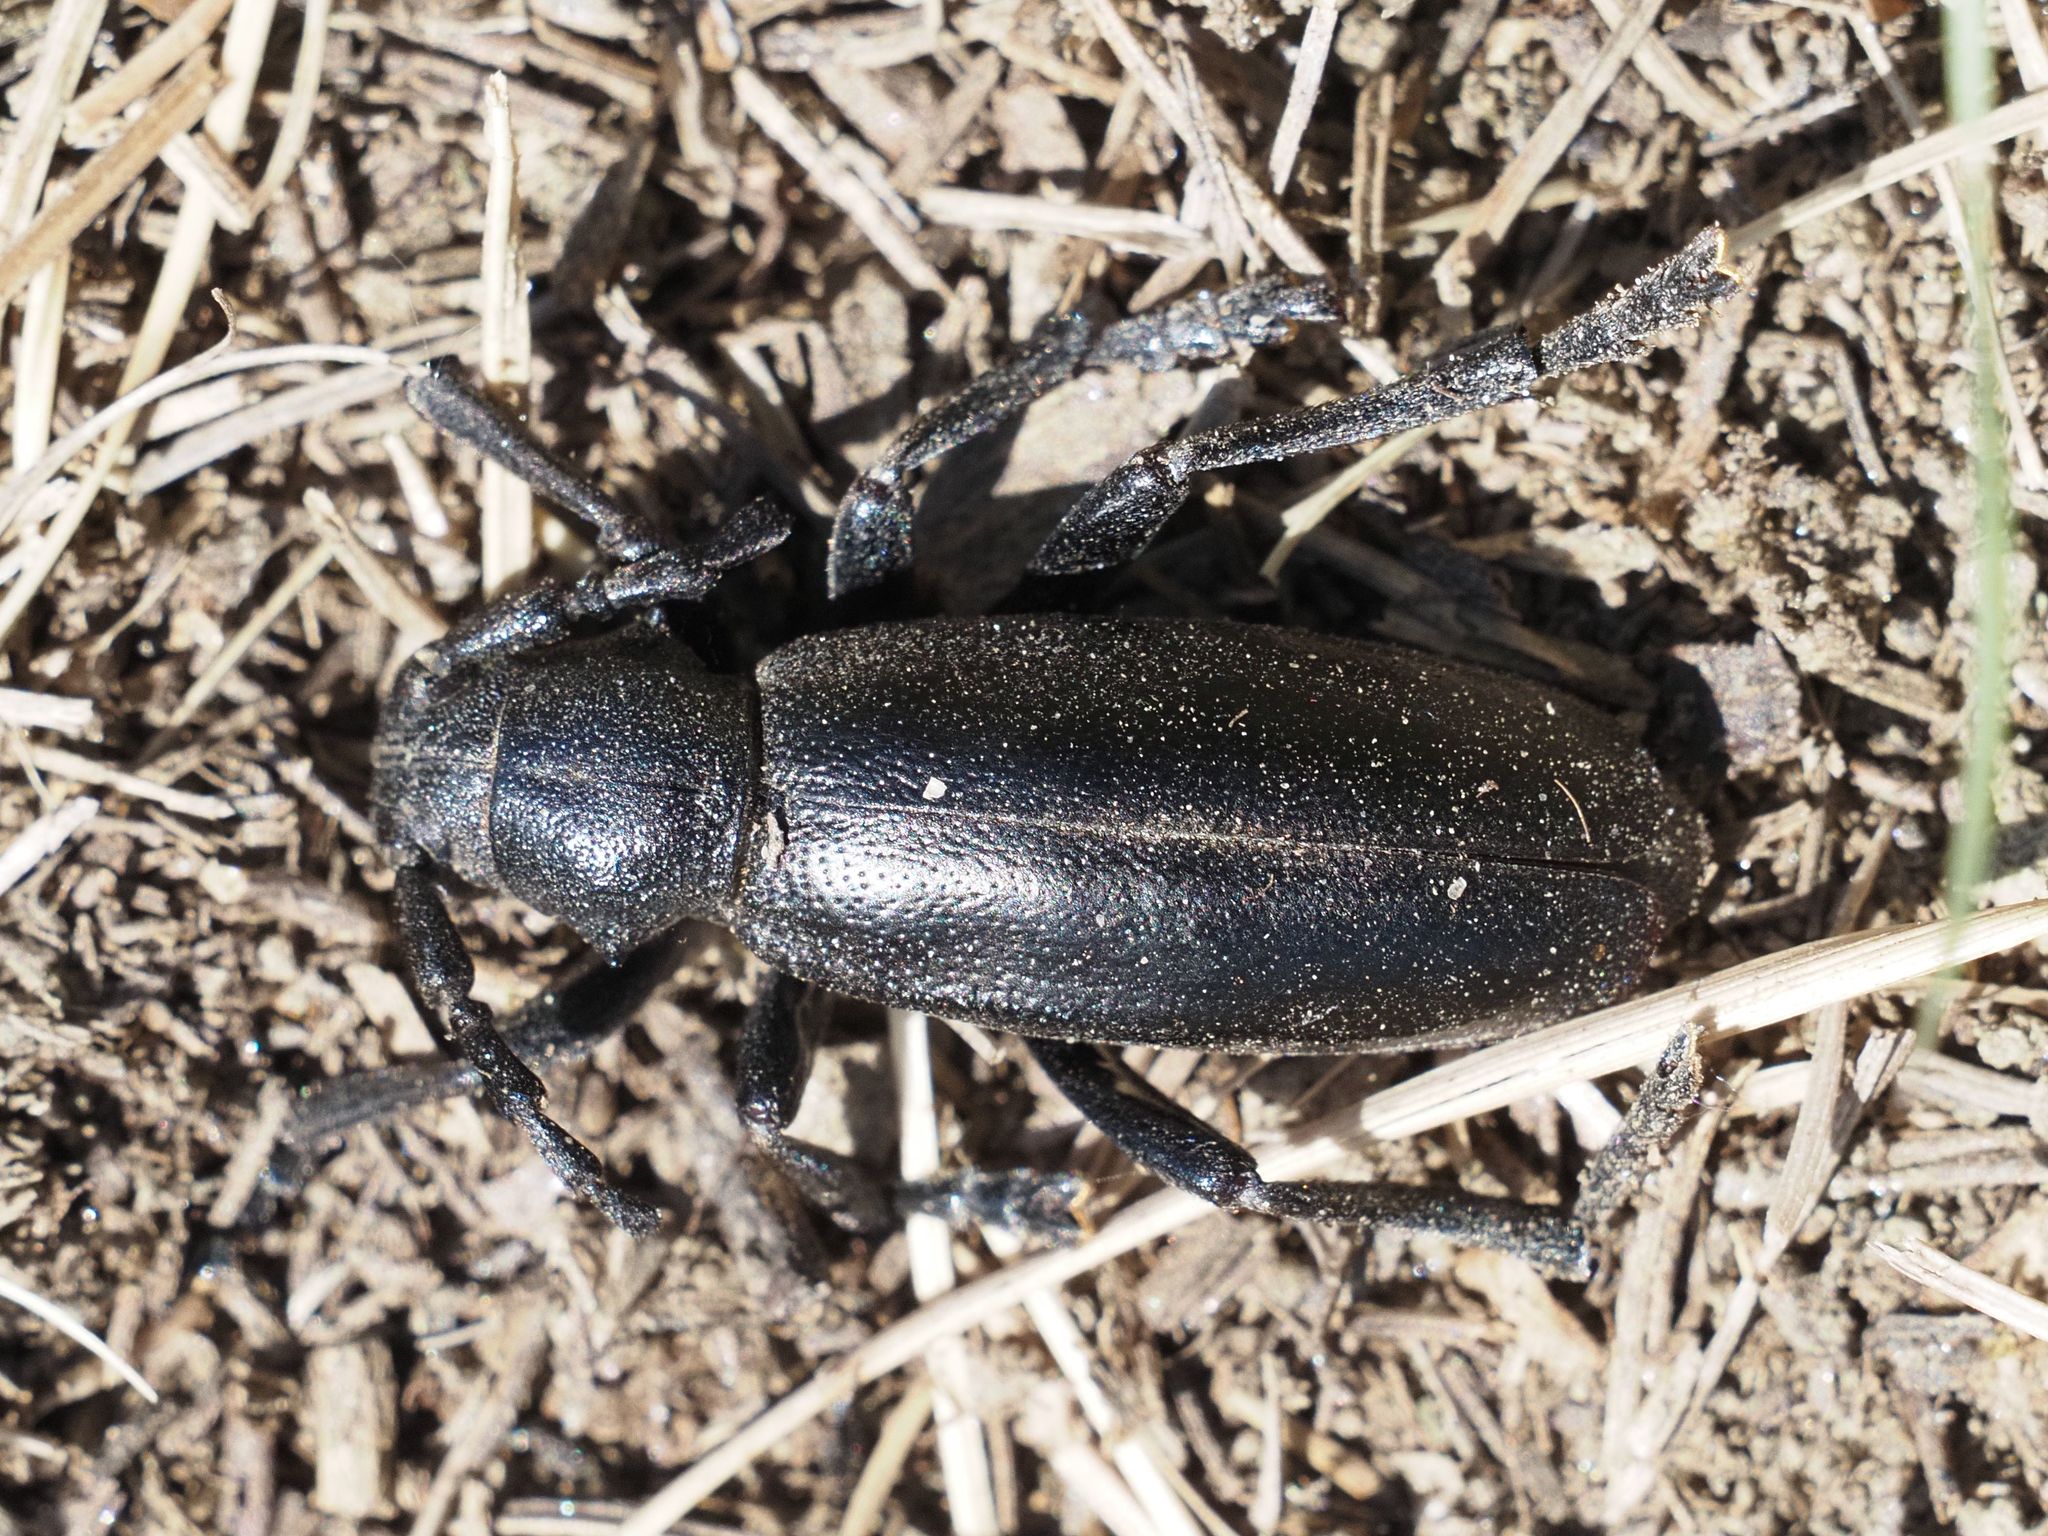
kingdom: Animalia
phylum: Arthropoda
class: Insecta
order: Coleoptera
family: Cerambycidae
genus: Dorcadion
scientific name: Dorcadion aethiops
